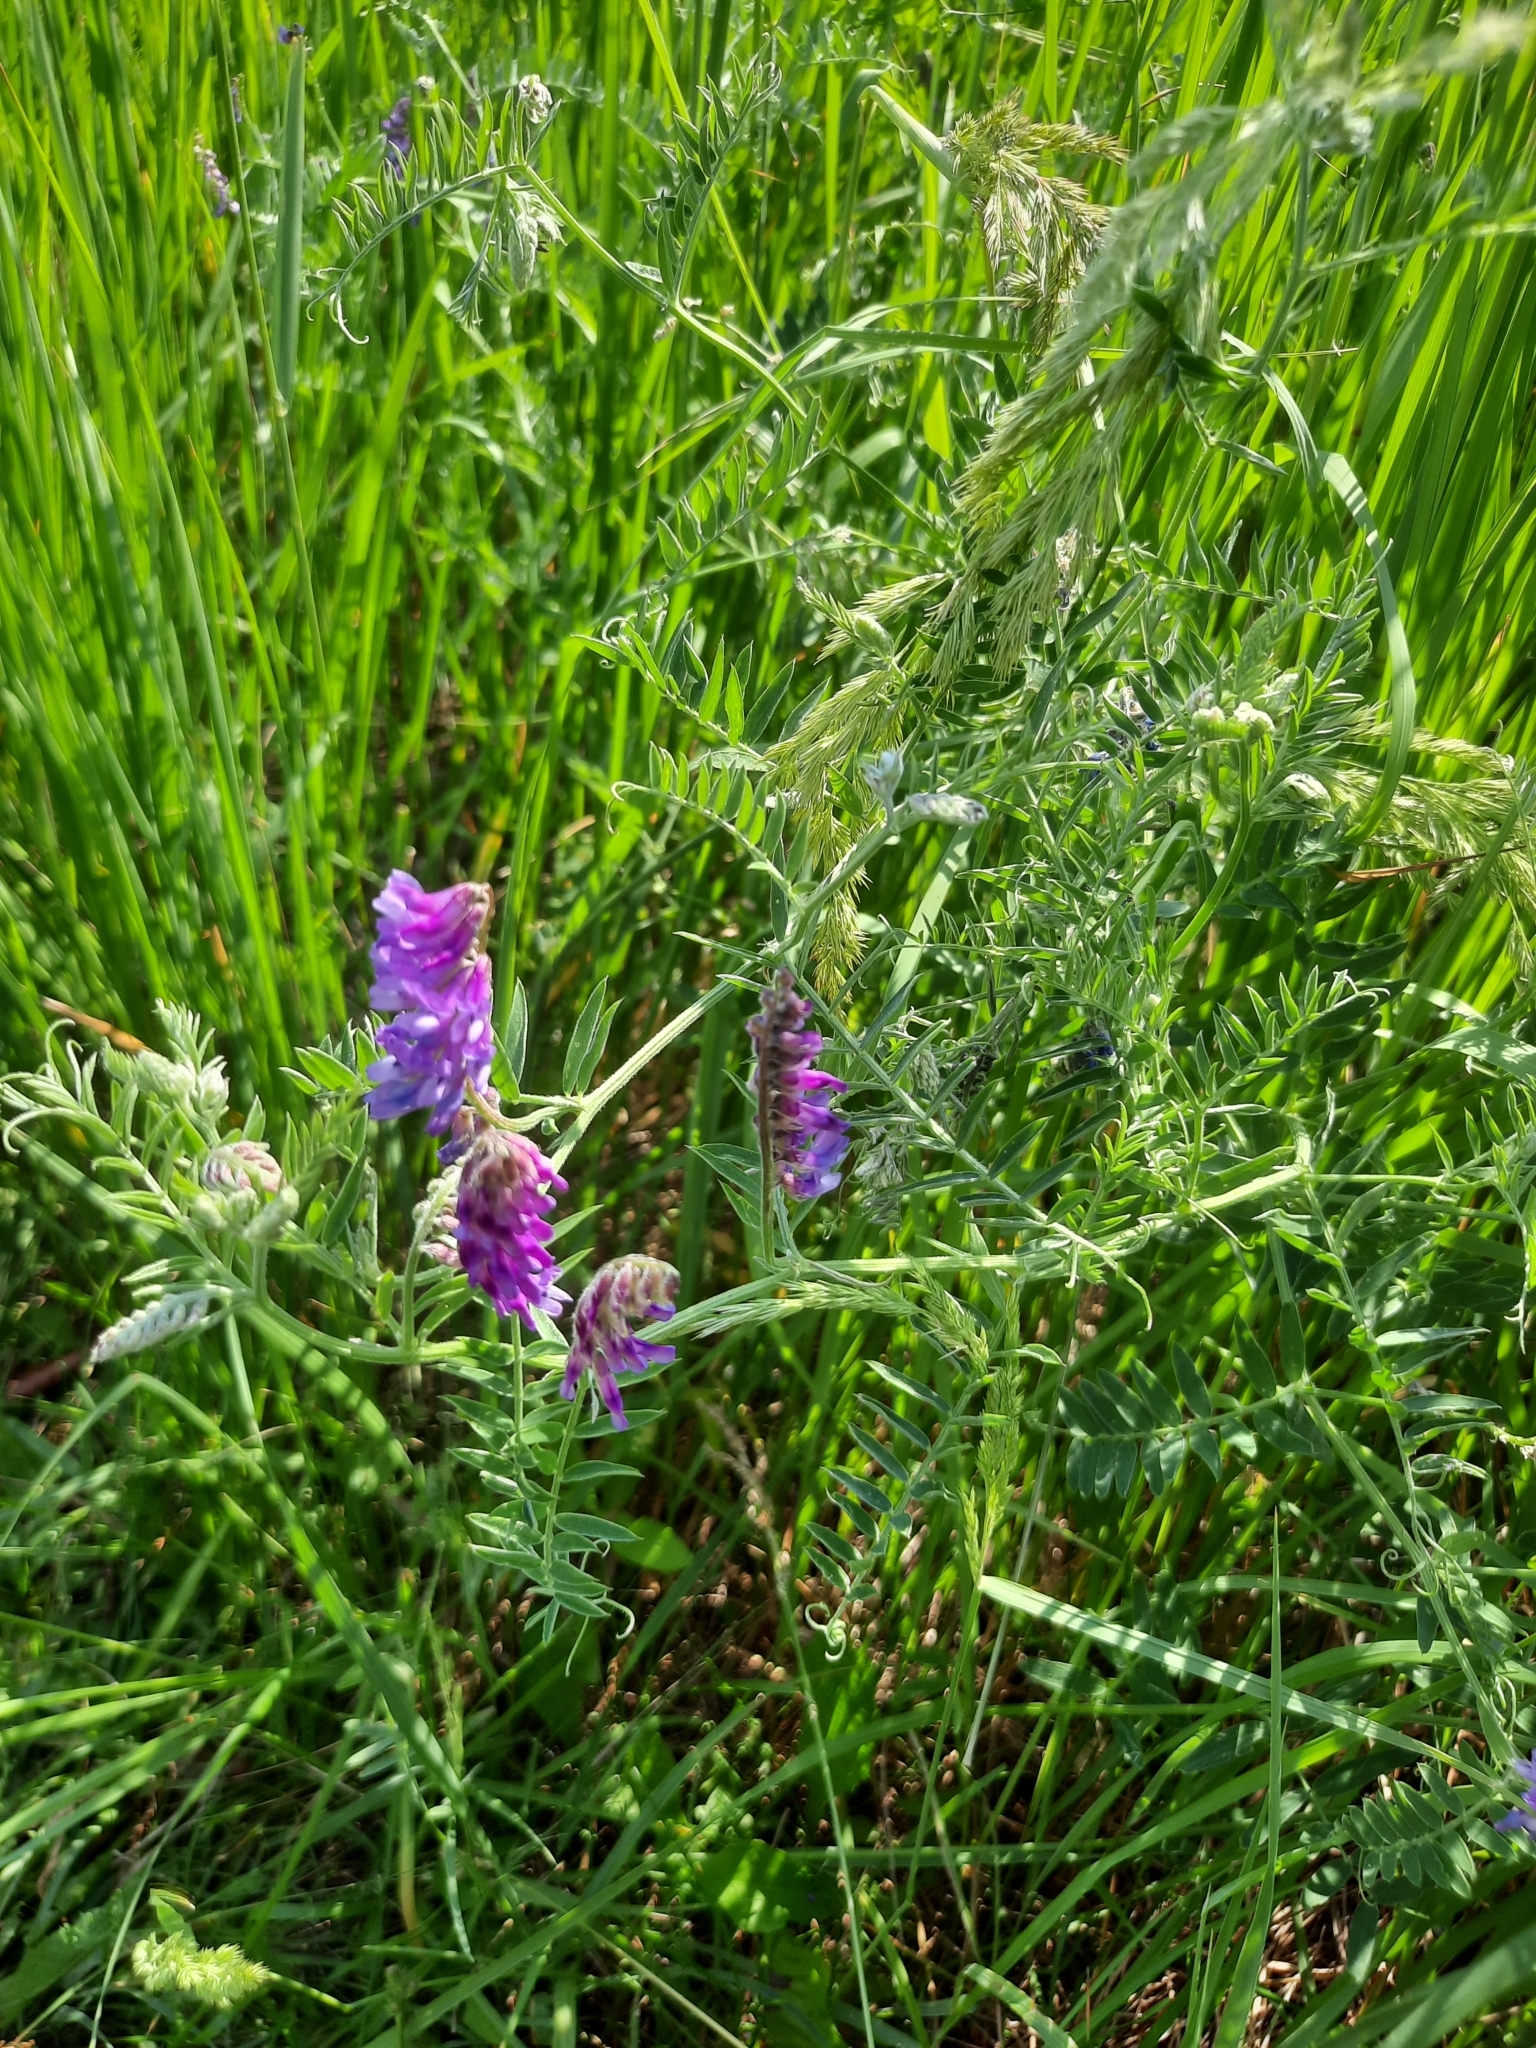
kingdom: Plantae
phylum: Tracheophyta
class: Magnoliopsida
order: Fabales
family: Fabaceae
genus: Vicia
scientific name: Vicia cracca
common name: Bird vetch
